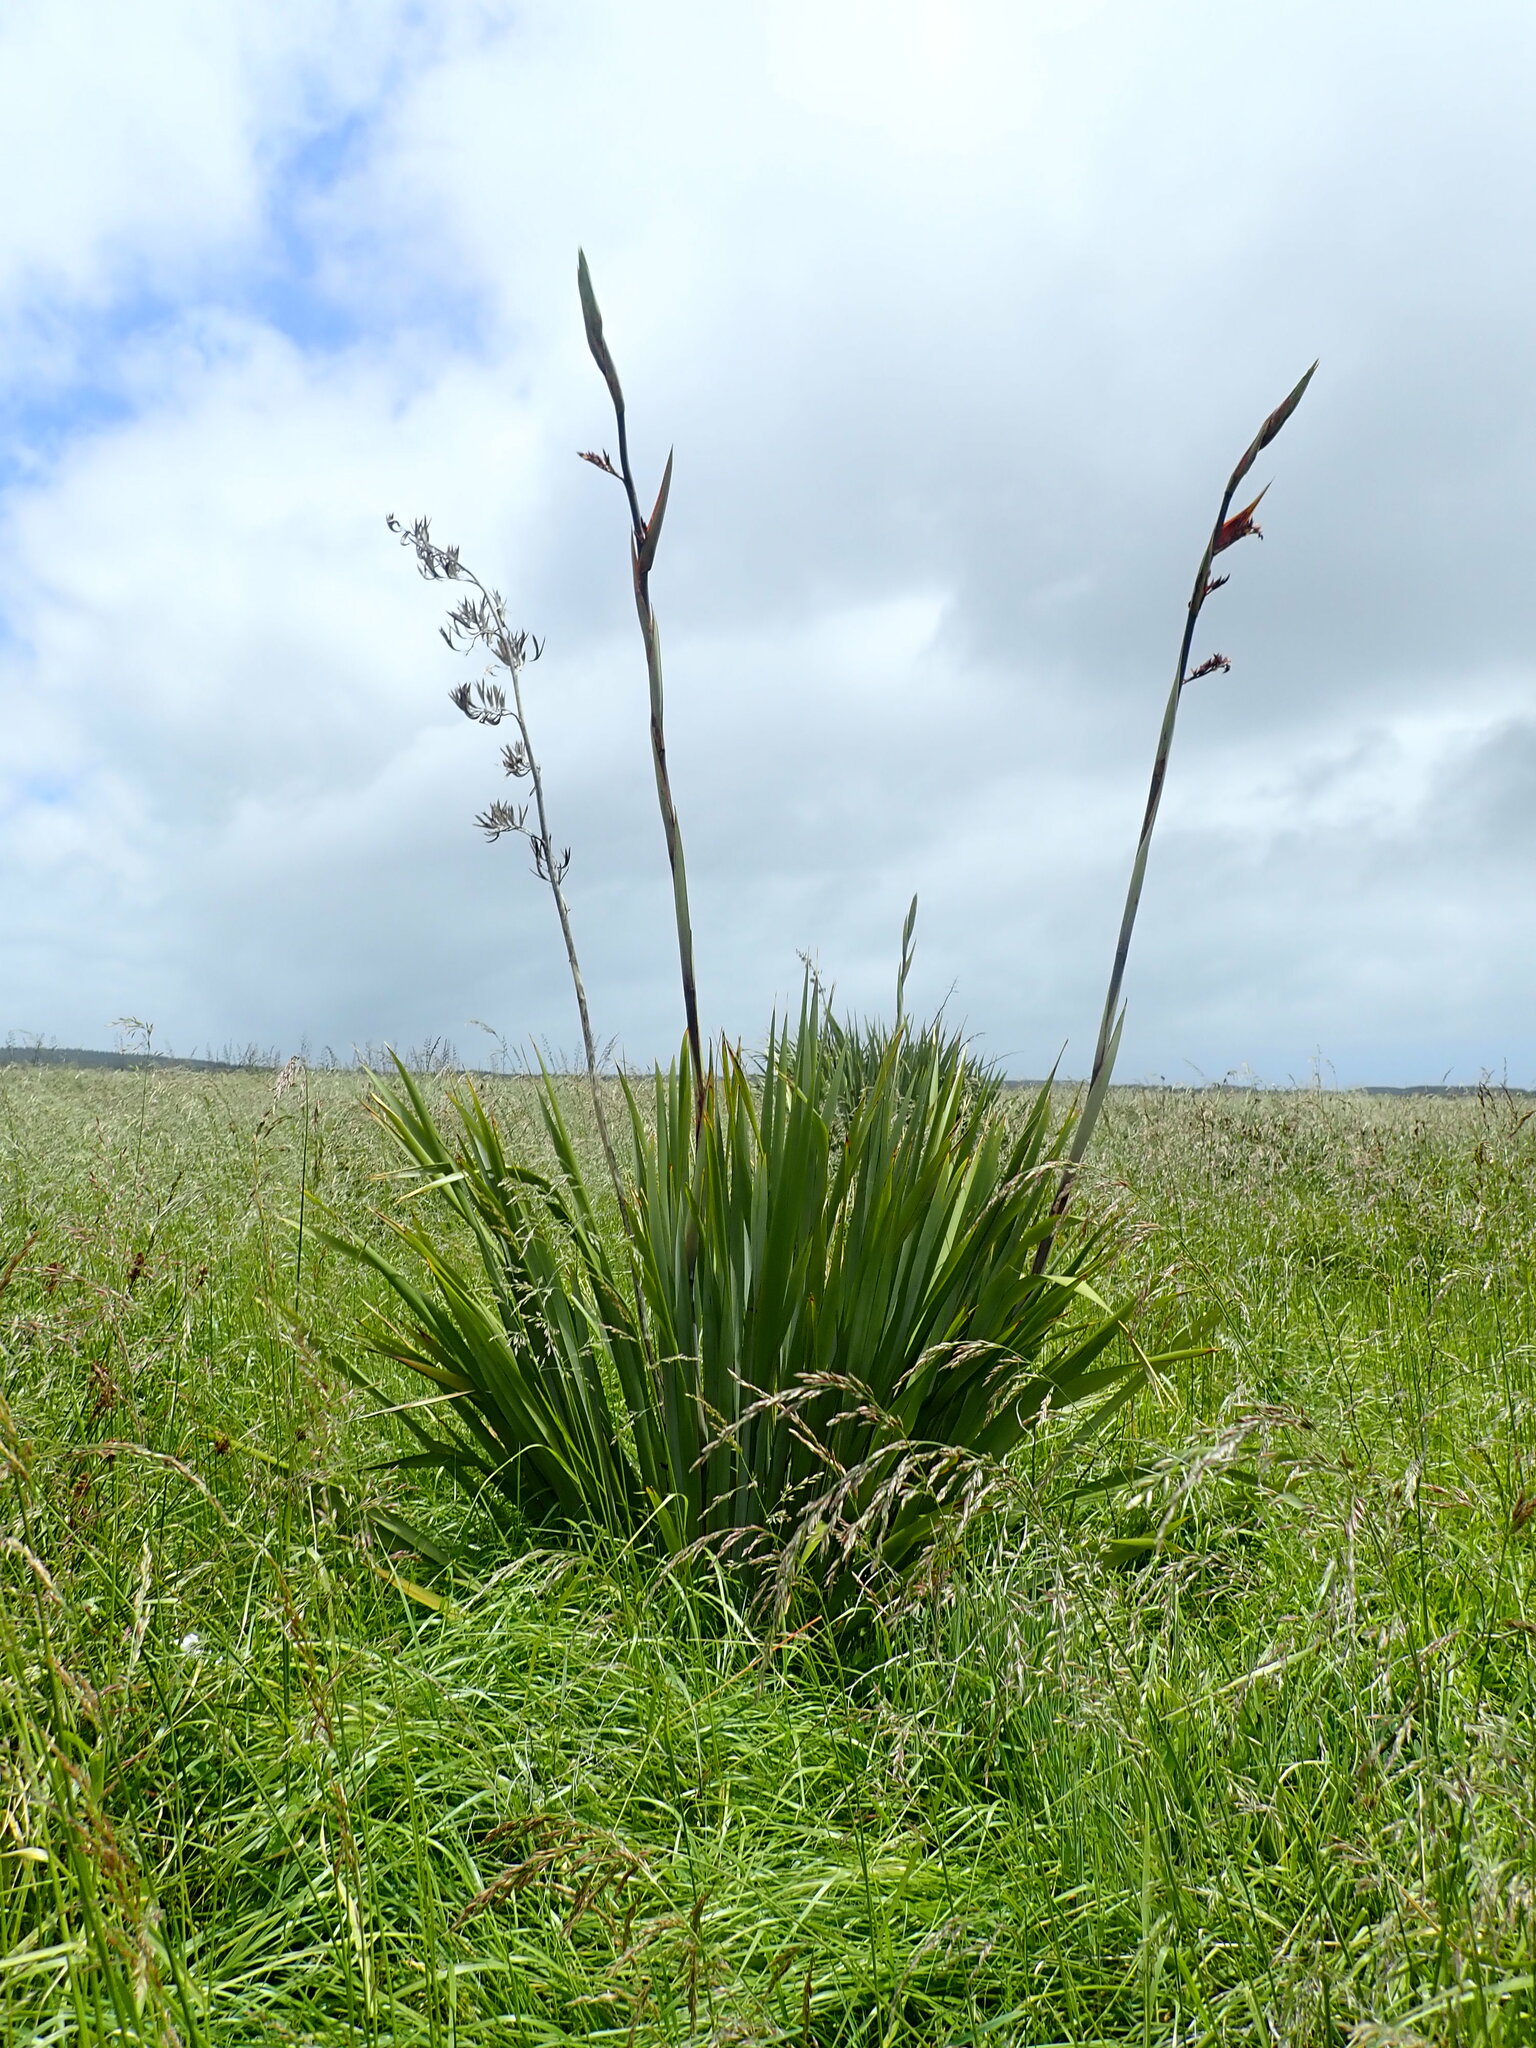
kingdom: Plantae
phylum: Tracheophyta
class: Liliopsida
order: Asparagales
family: Asphodelaceae
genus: Phormium
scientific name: Phormium tenax
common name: New zealand flax
